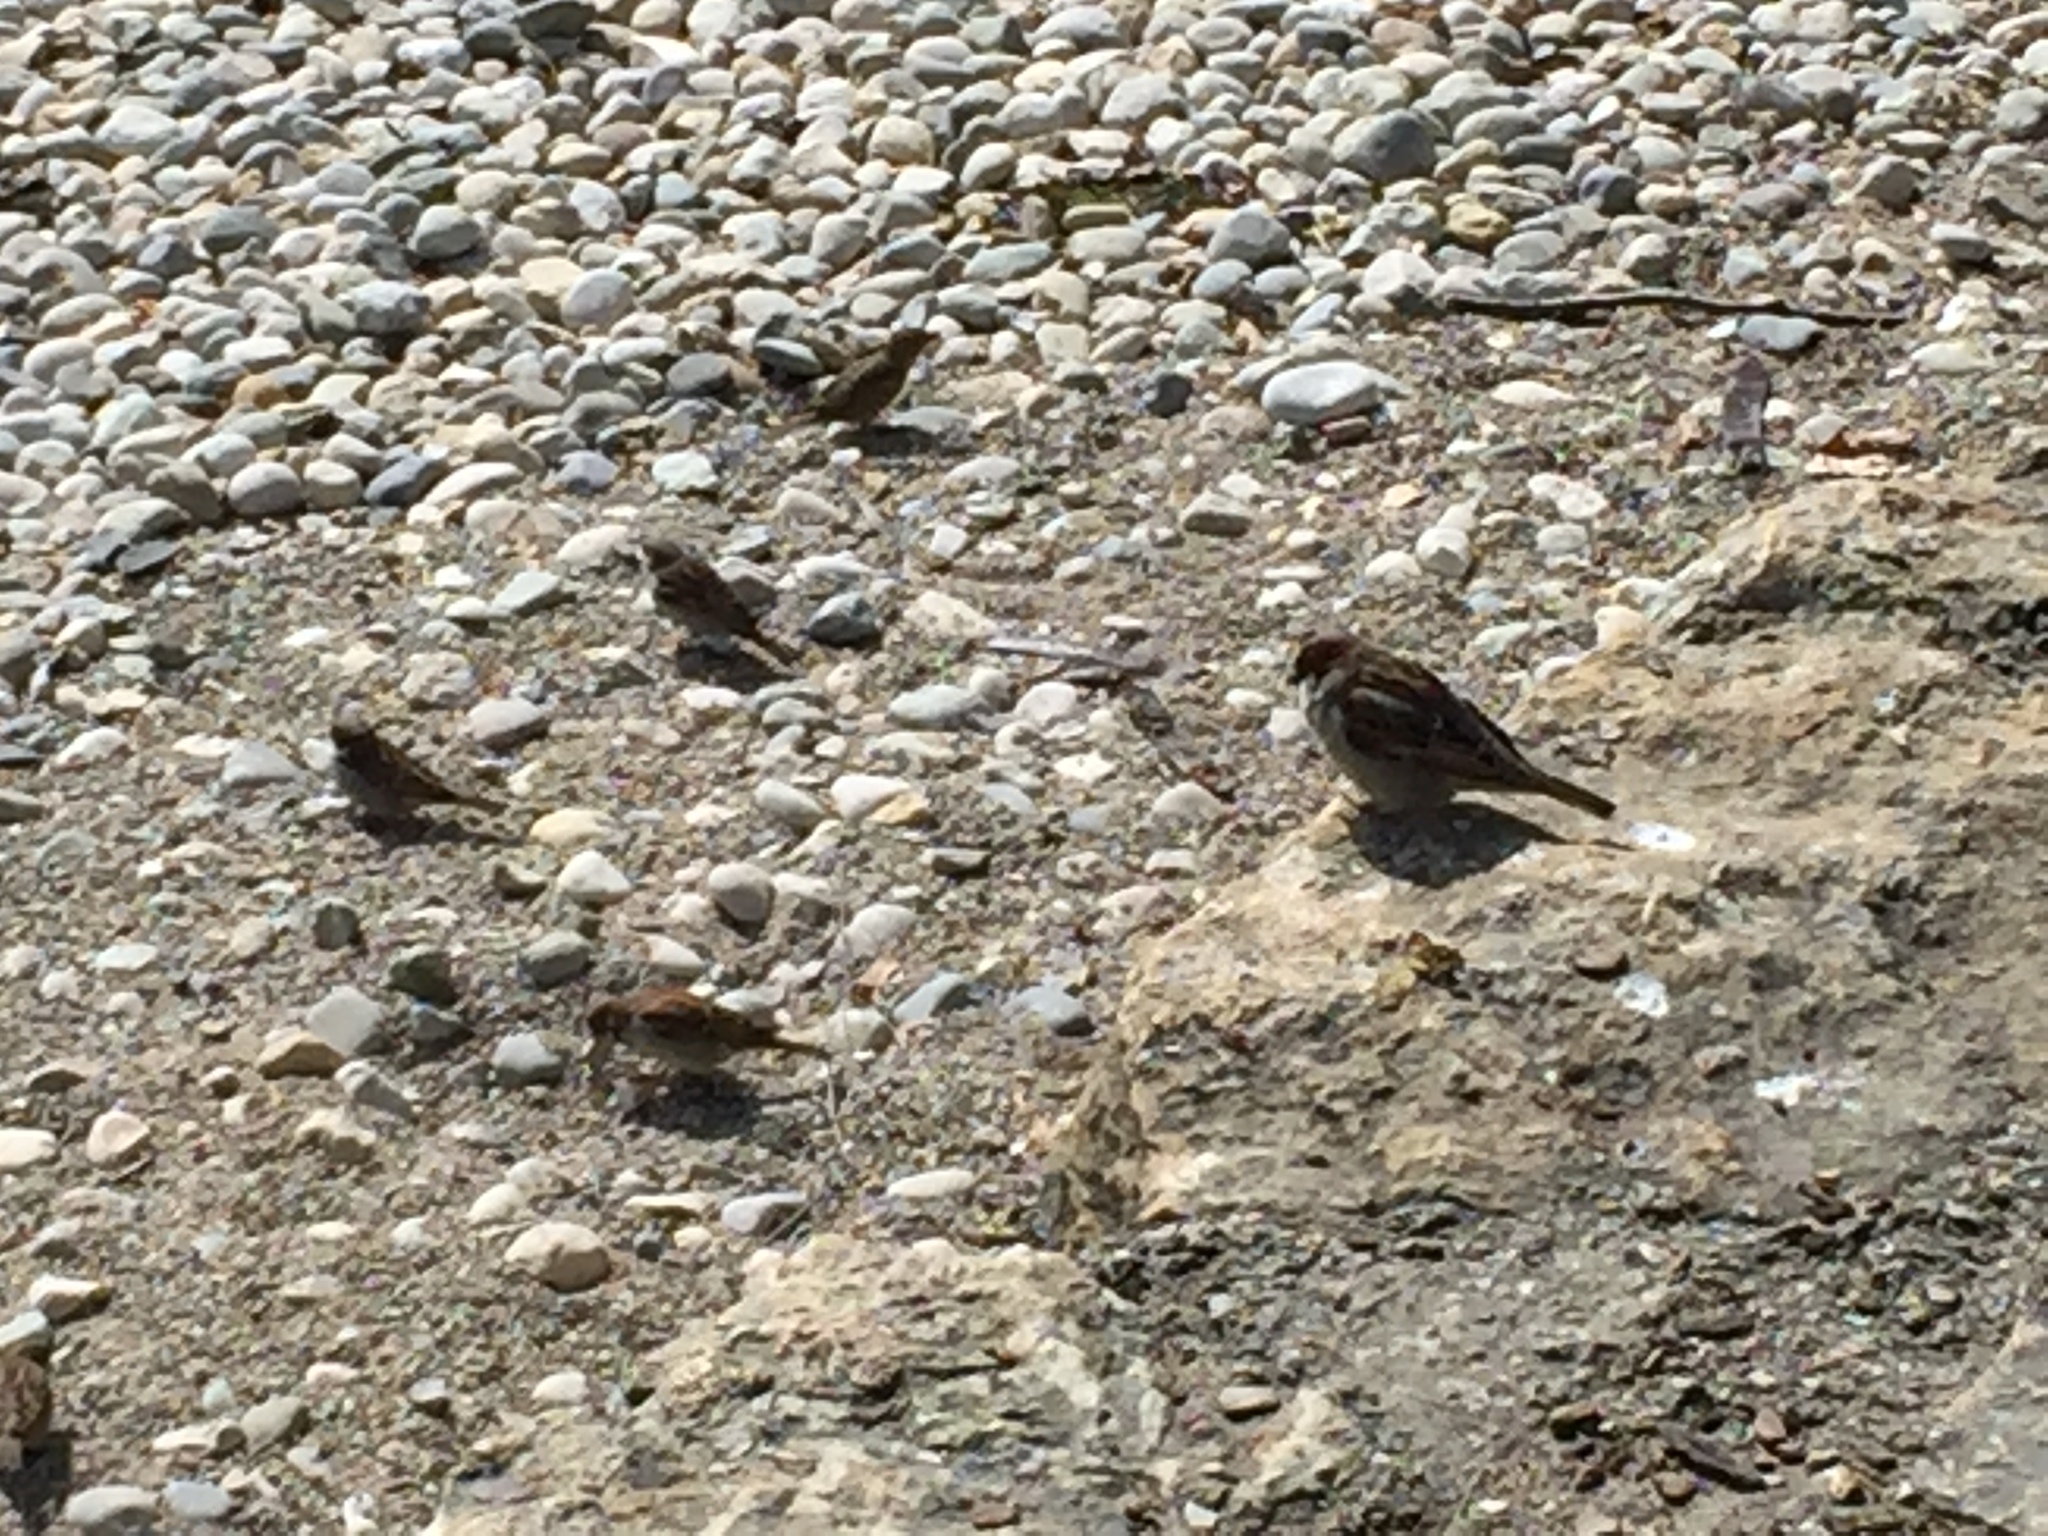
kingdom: Animalia
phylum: Chordata
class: Aves
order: Passeriformes
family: Passeridae
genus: Passer
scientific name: Passer domesticus
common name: House sparrow
